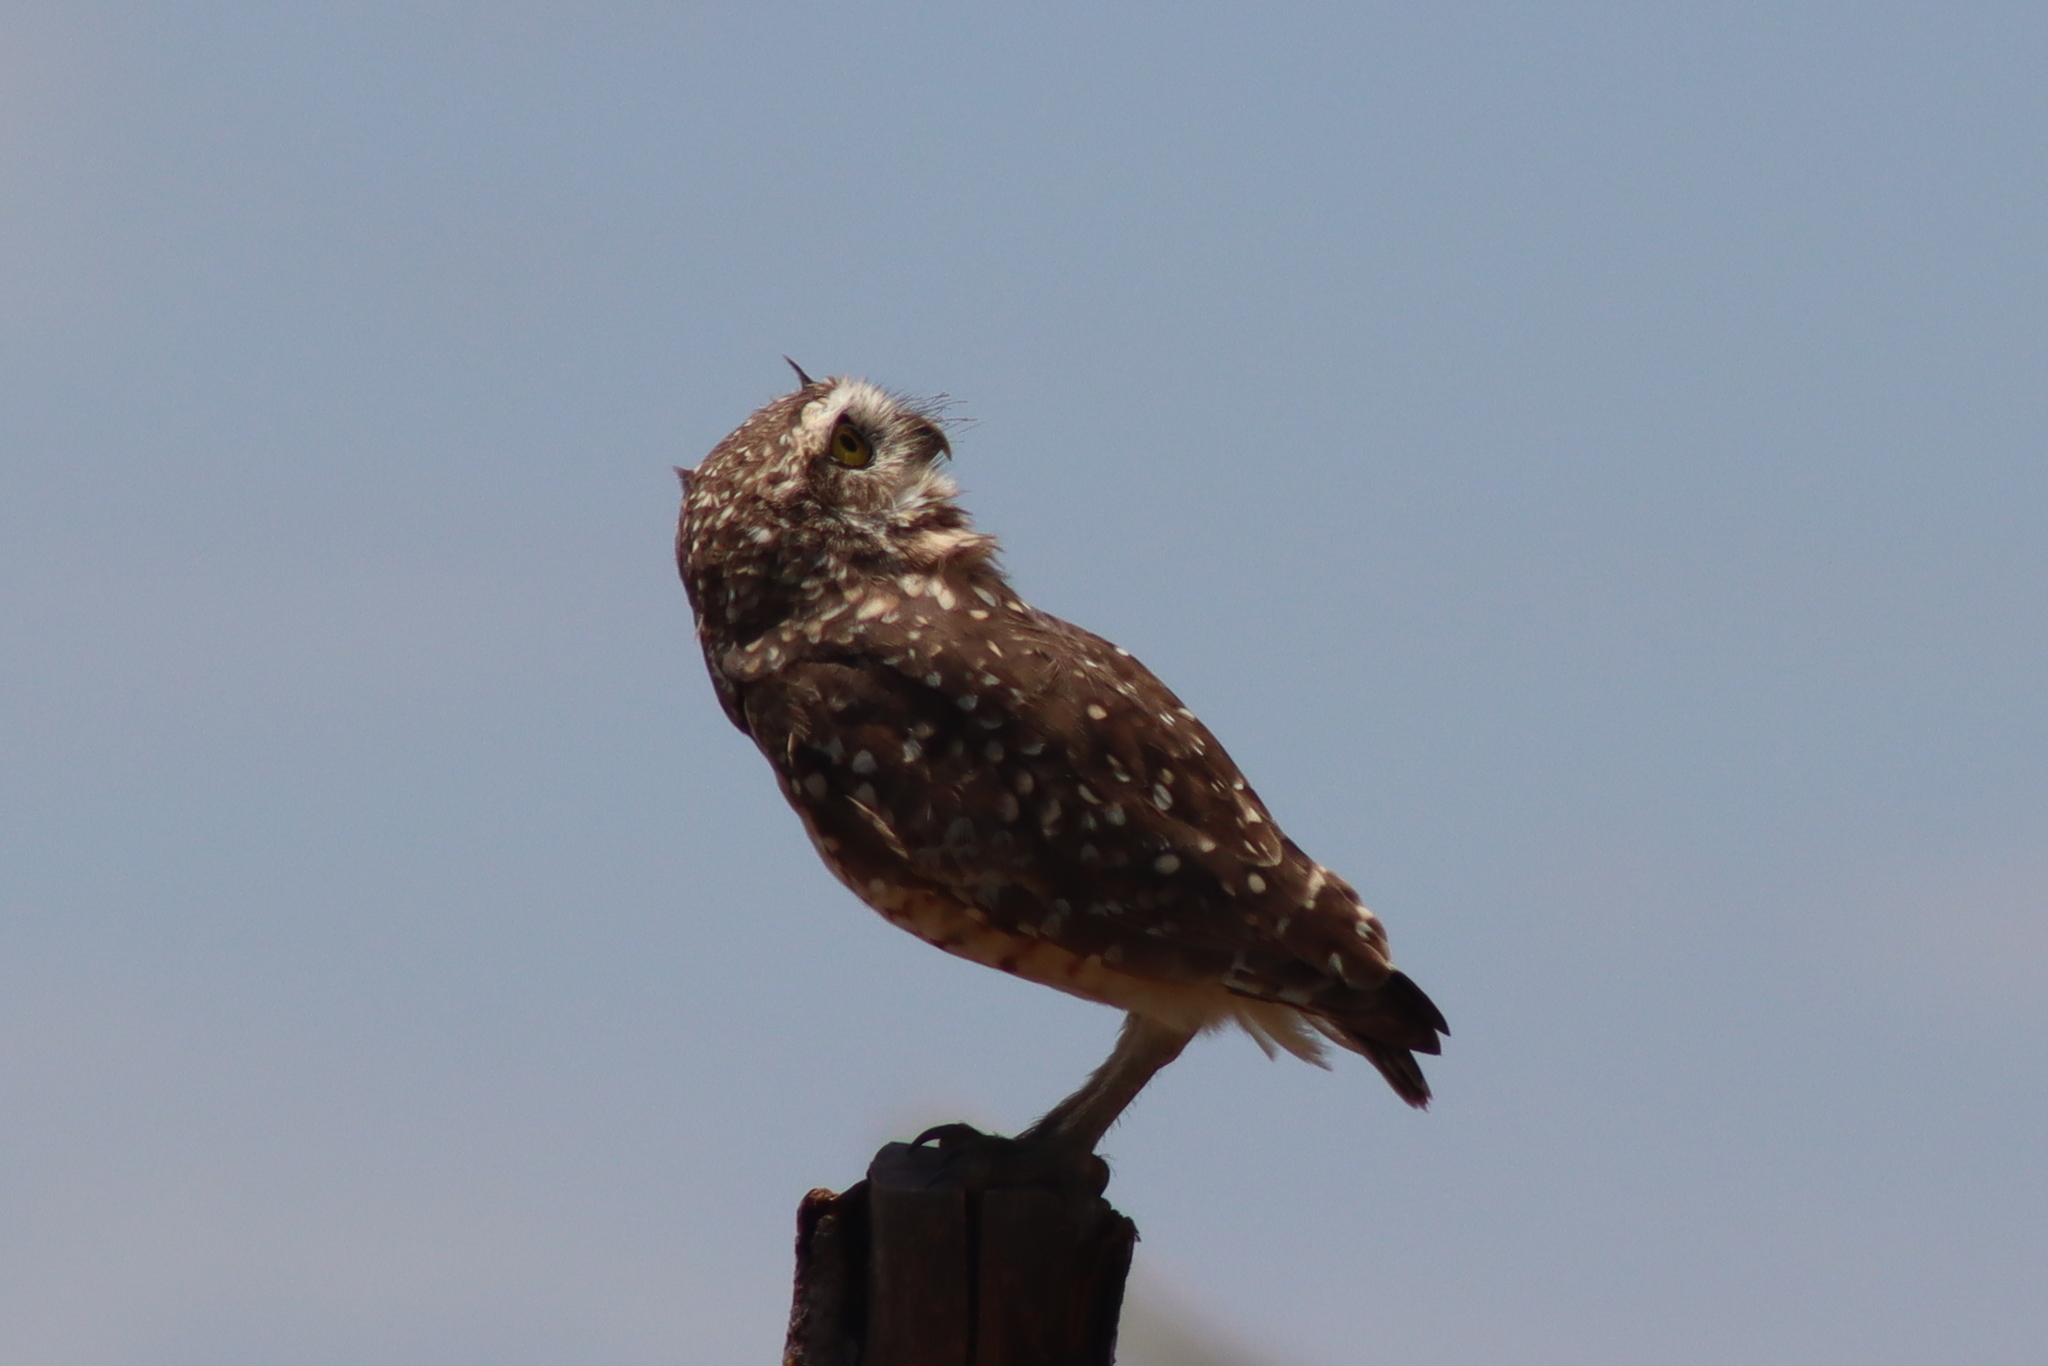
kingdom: Animalia
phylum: Chordata
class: Aves
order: Strigiformes
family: Strigidae
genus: Athene
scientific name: Athene cunicularia
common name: Burrowing owl
